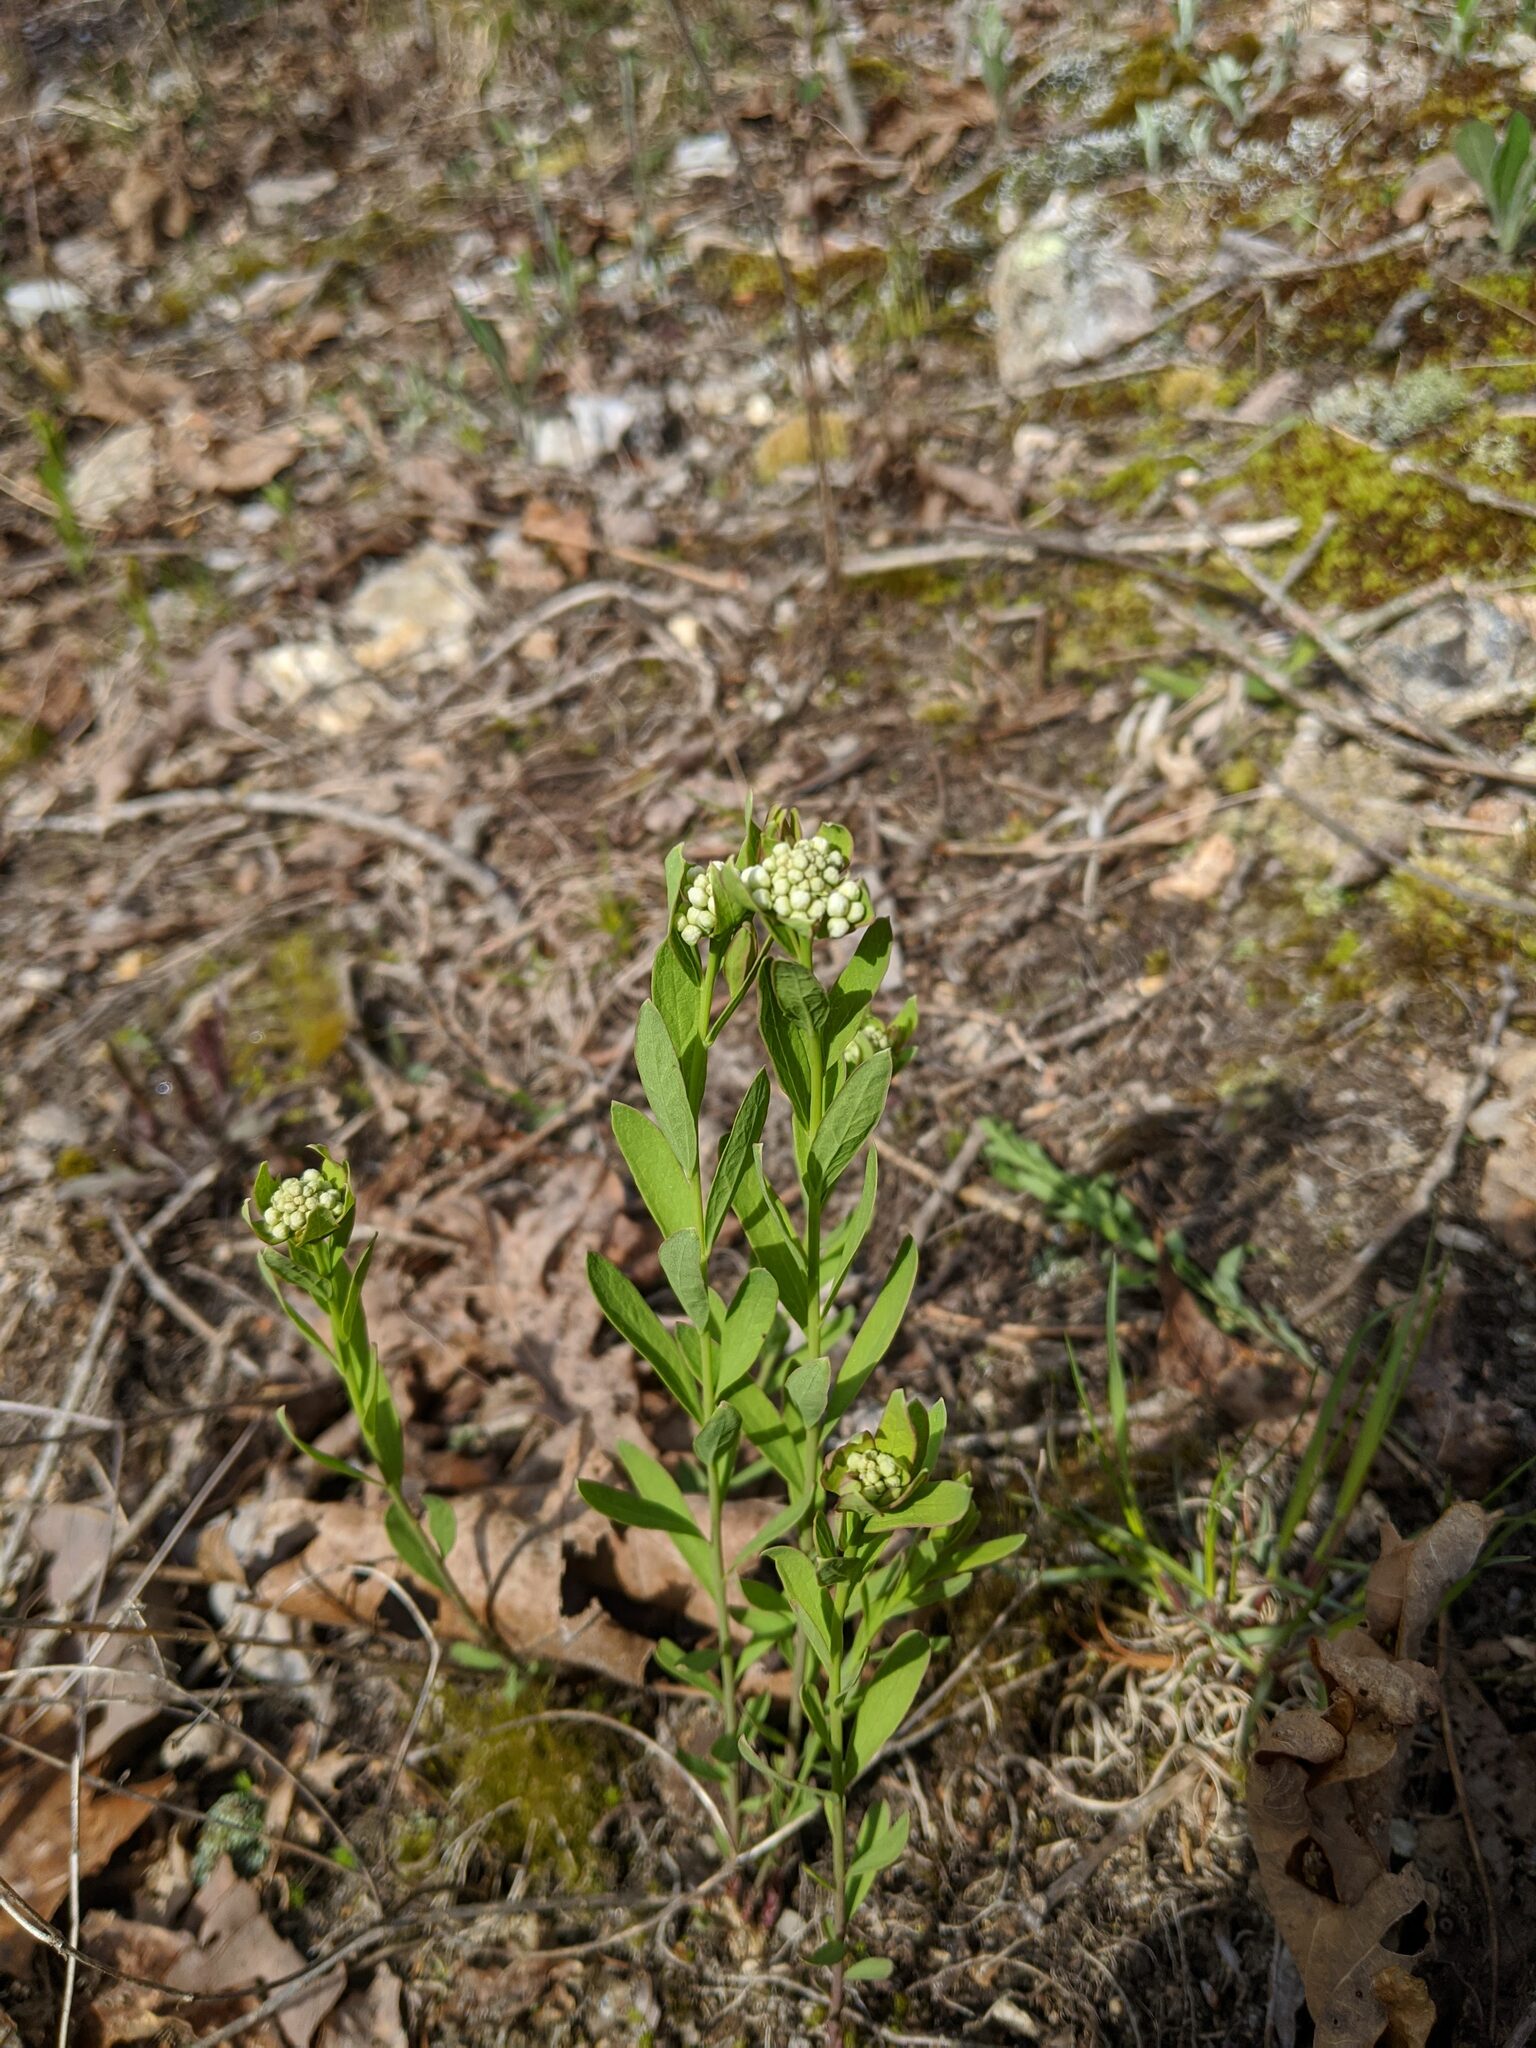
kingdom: Plantae
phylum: Tracheophyta
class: Magnoliopsida
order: Santalales
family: Comandraceae
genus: Comandra
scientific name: Comandra umbellata
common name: Bastard toadflax
